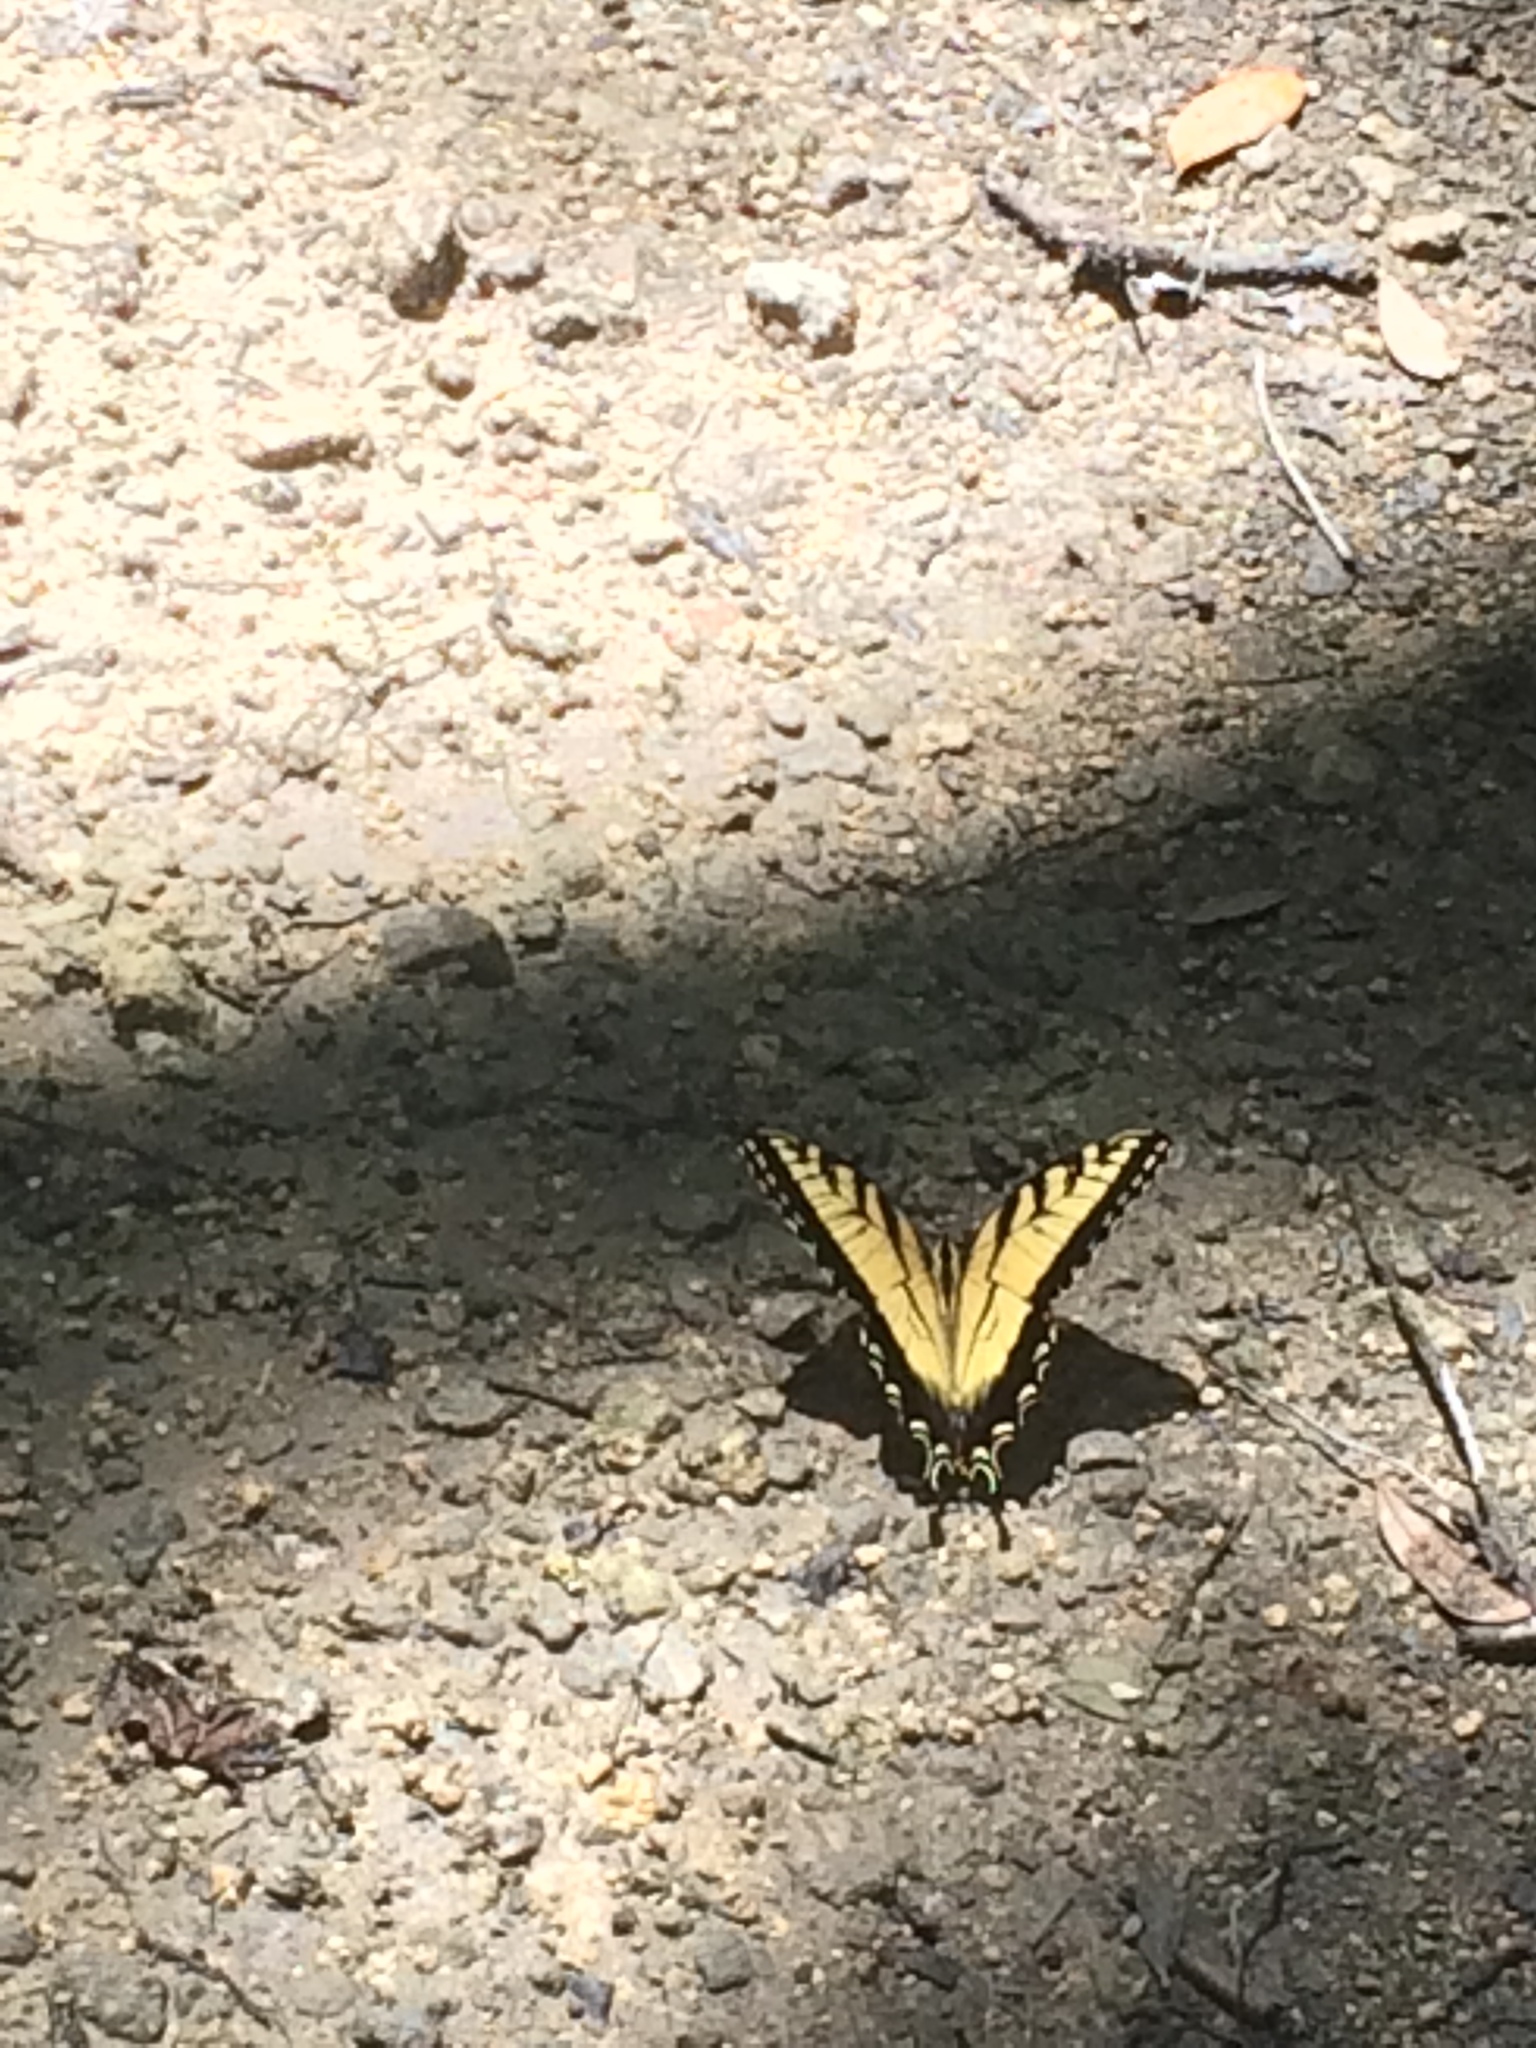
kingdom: Animalia
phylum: Arthropoda
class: Insecta
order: Lepidoptera
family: Papilionidae
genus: Papilio
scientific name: Papilio glaucus
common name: Tiger swallowtail
